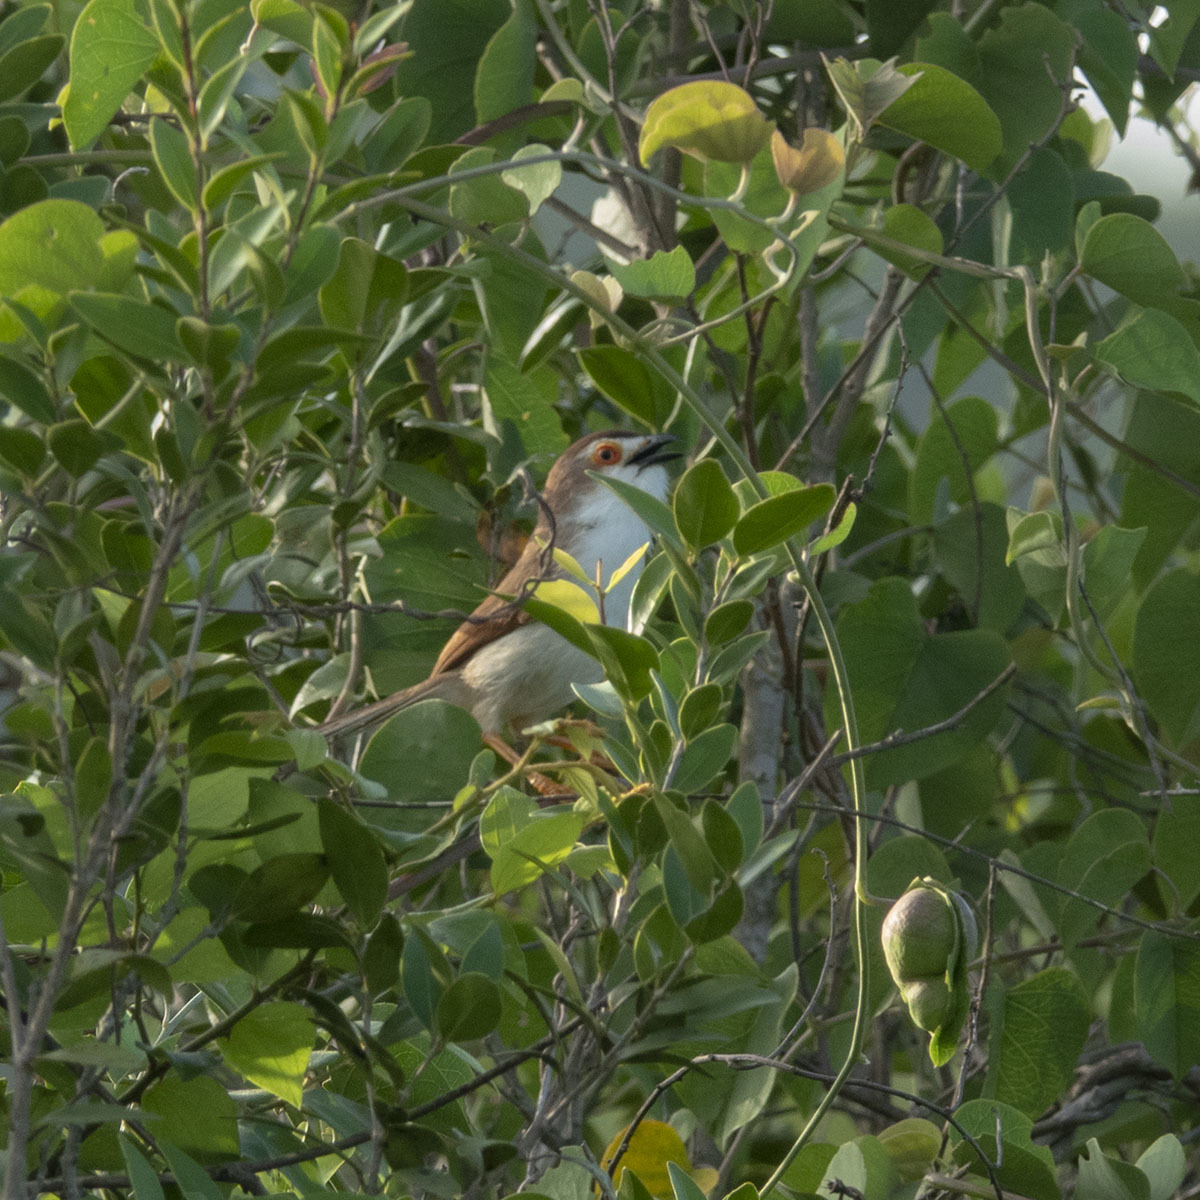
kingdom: Animalia
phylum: Chordata
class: Aves
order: Passeriformes
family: Sylviidae
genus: Chrysomma
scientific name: Chrysomma sinense
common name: Yellow-eyed babbler
